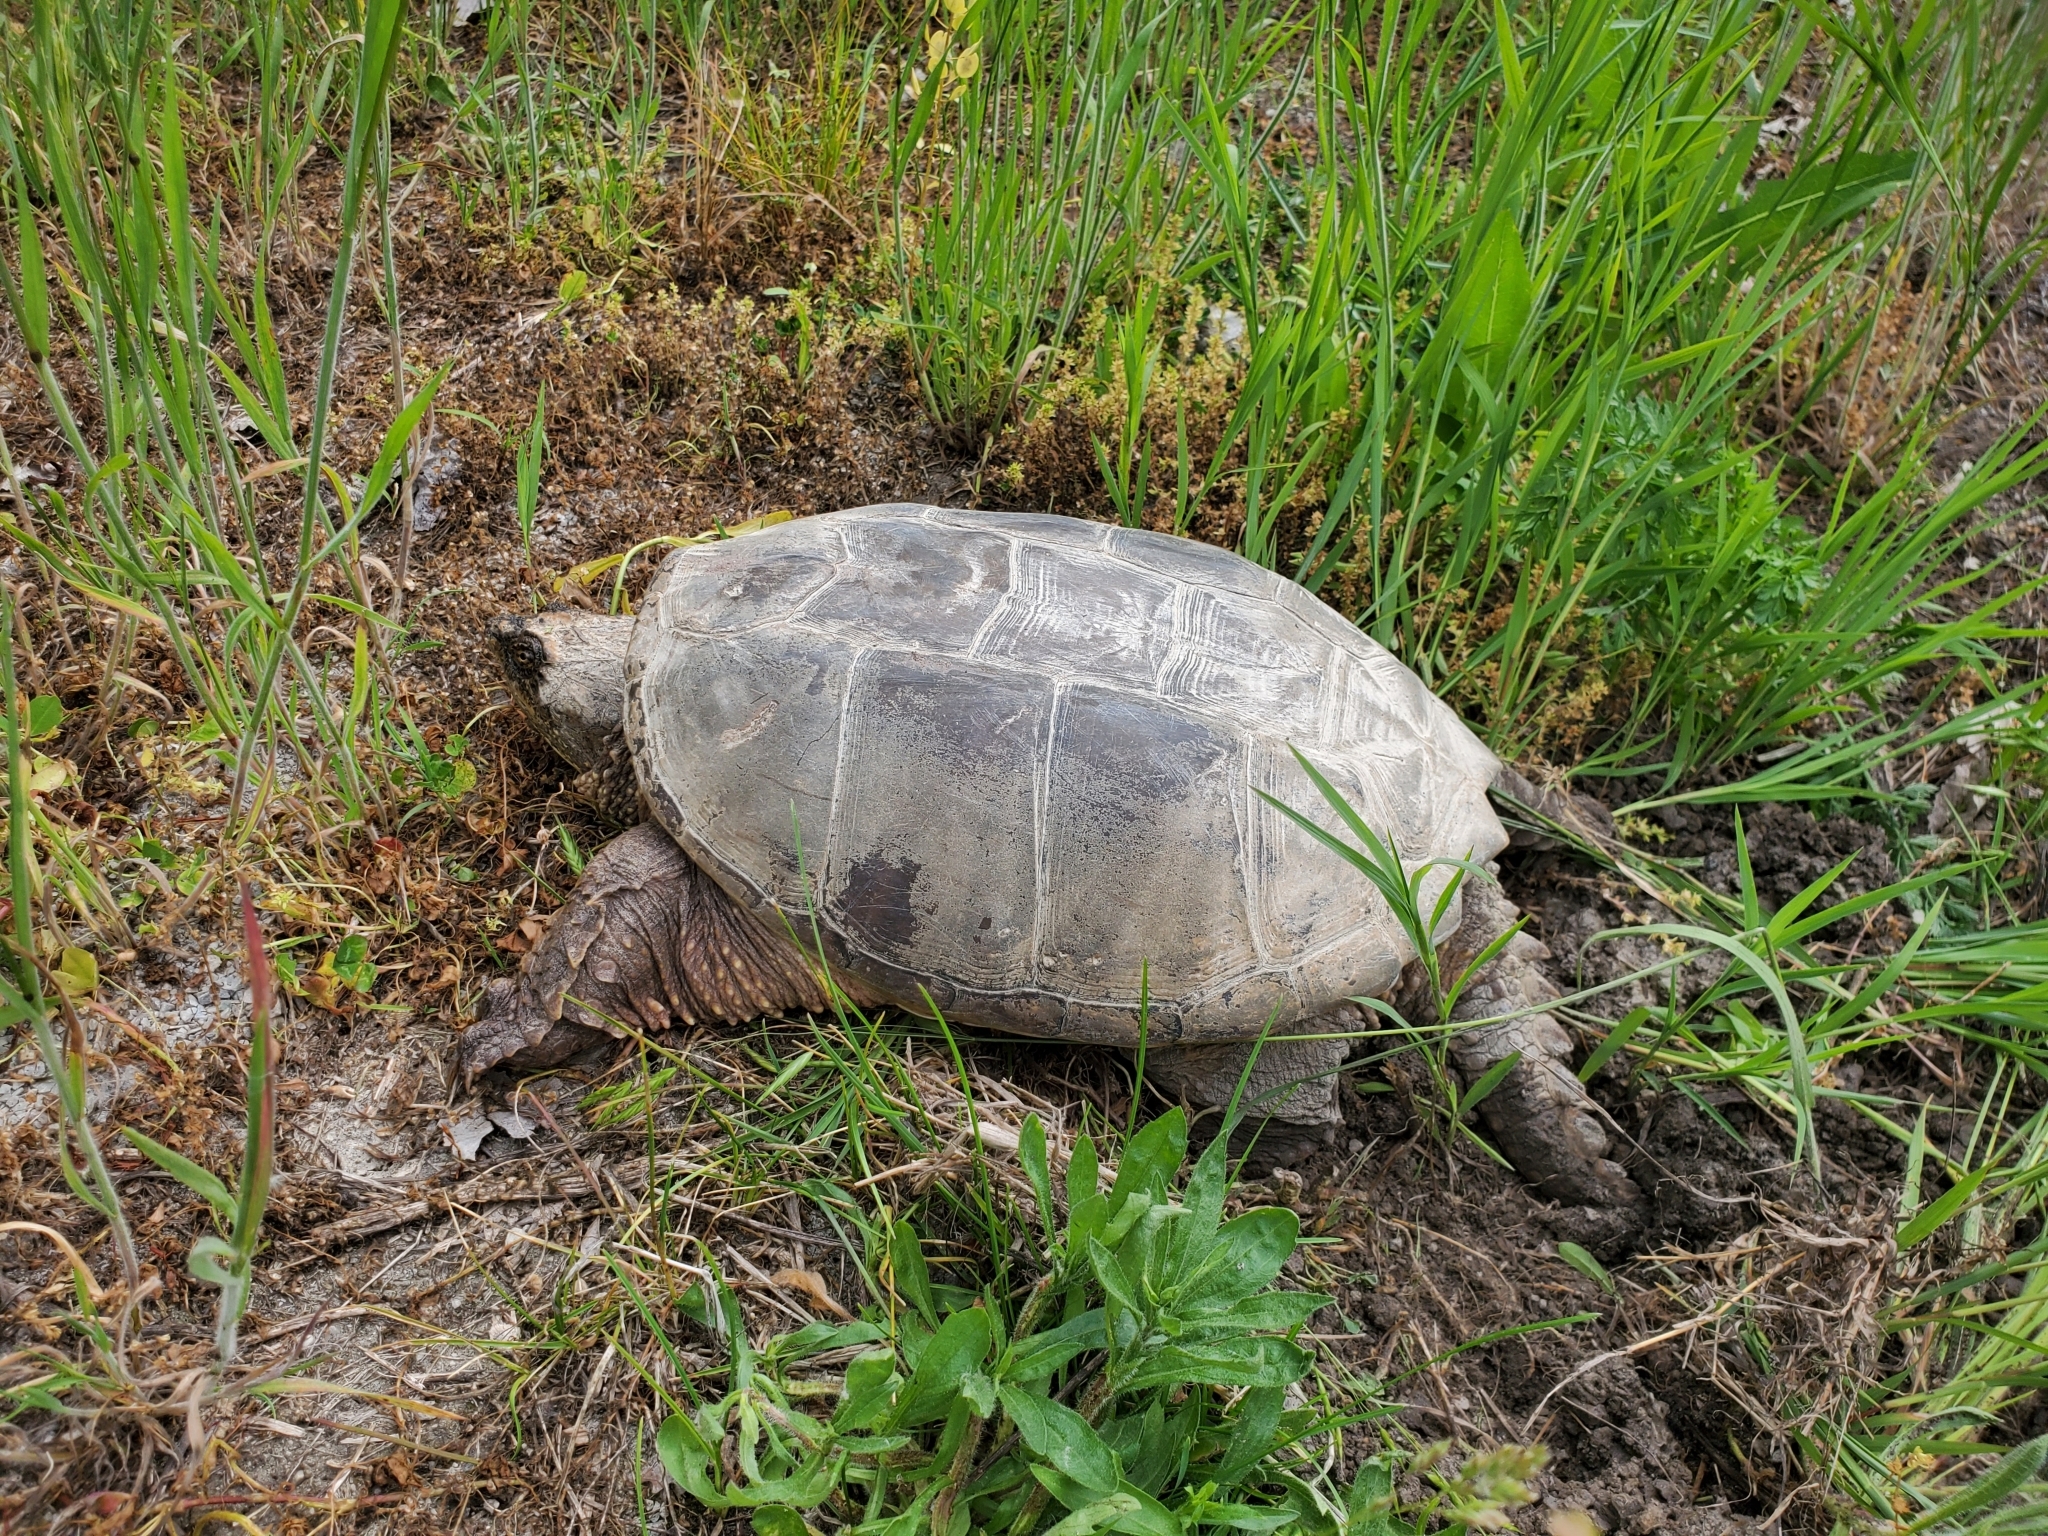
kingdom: Animalia
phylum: Chordata
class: Testudines
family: Chelydridae
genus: Chelydra
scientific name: Chelydra serpentina
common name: Common snapping turtle
